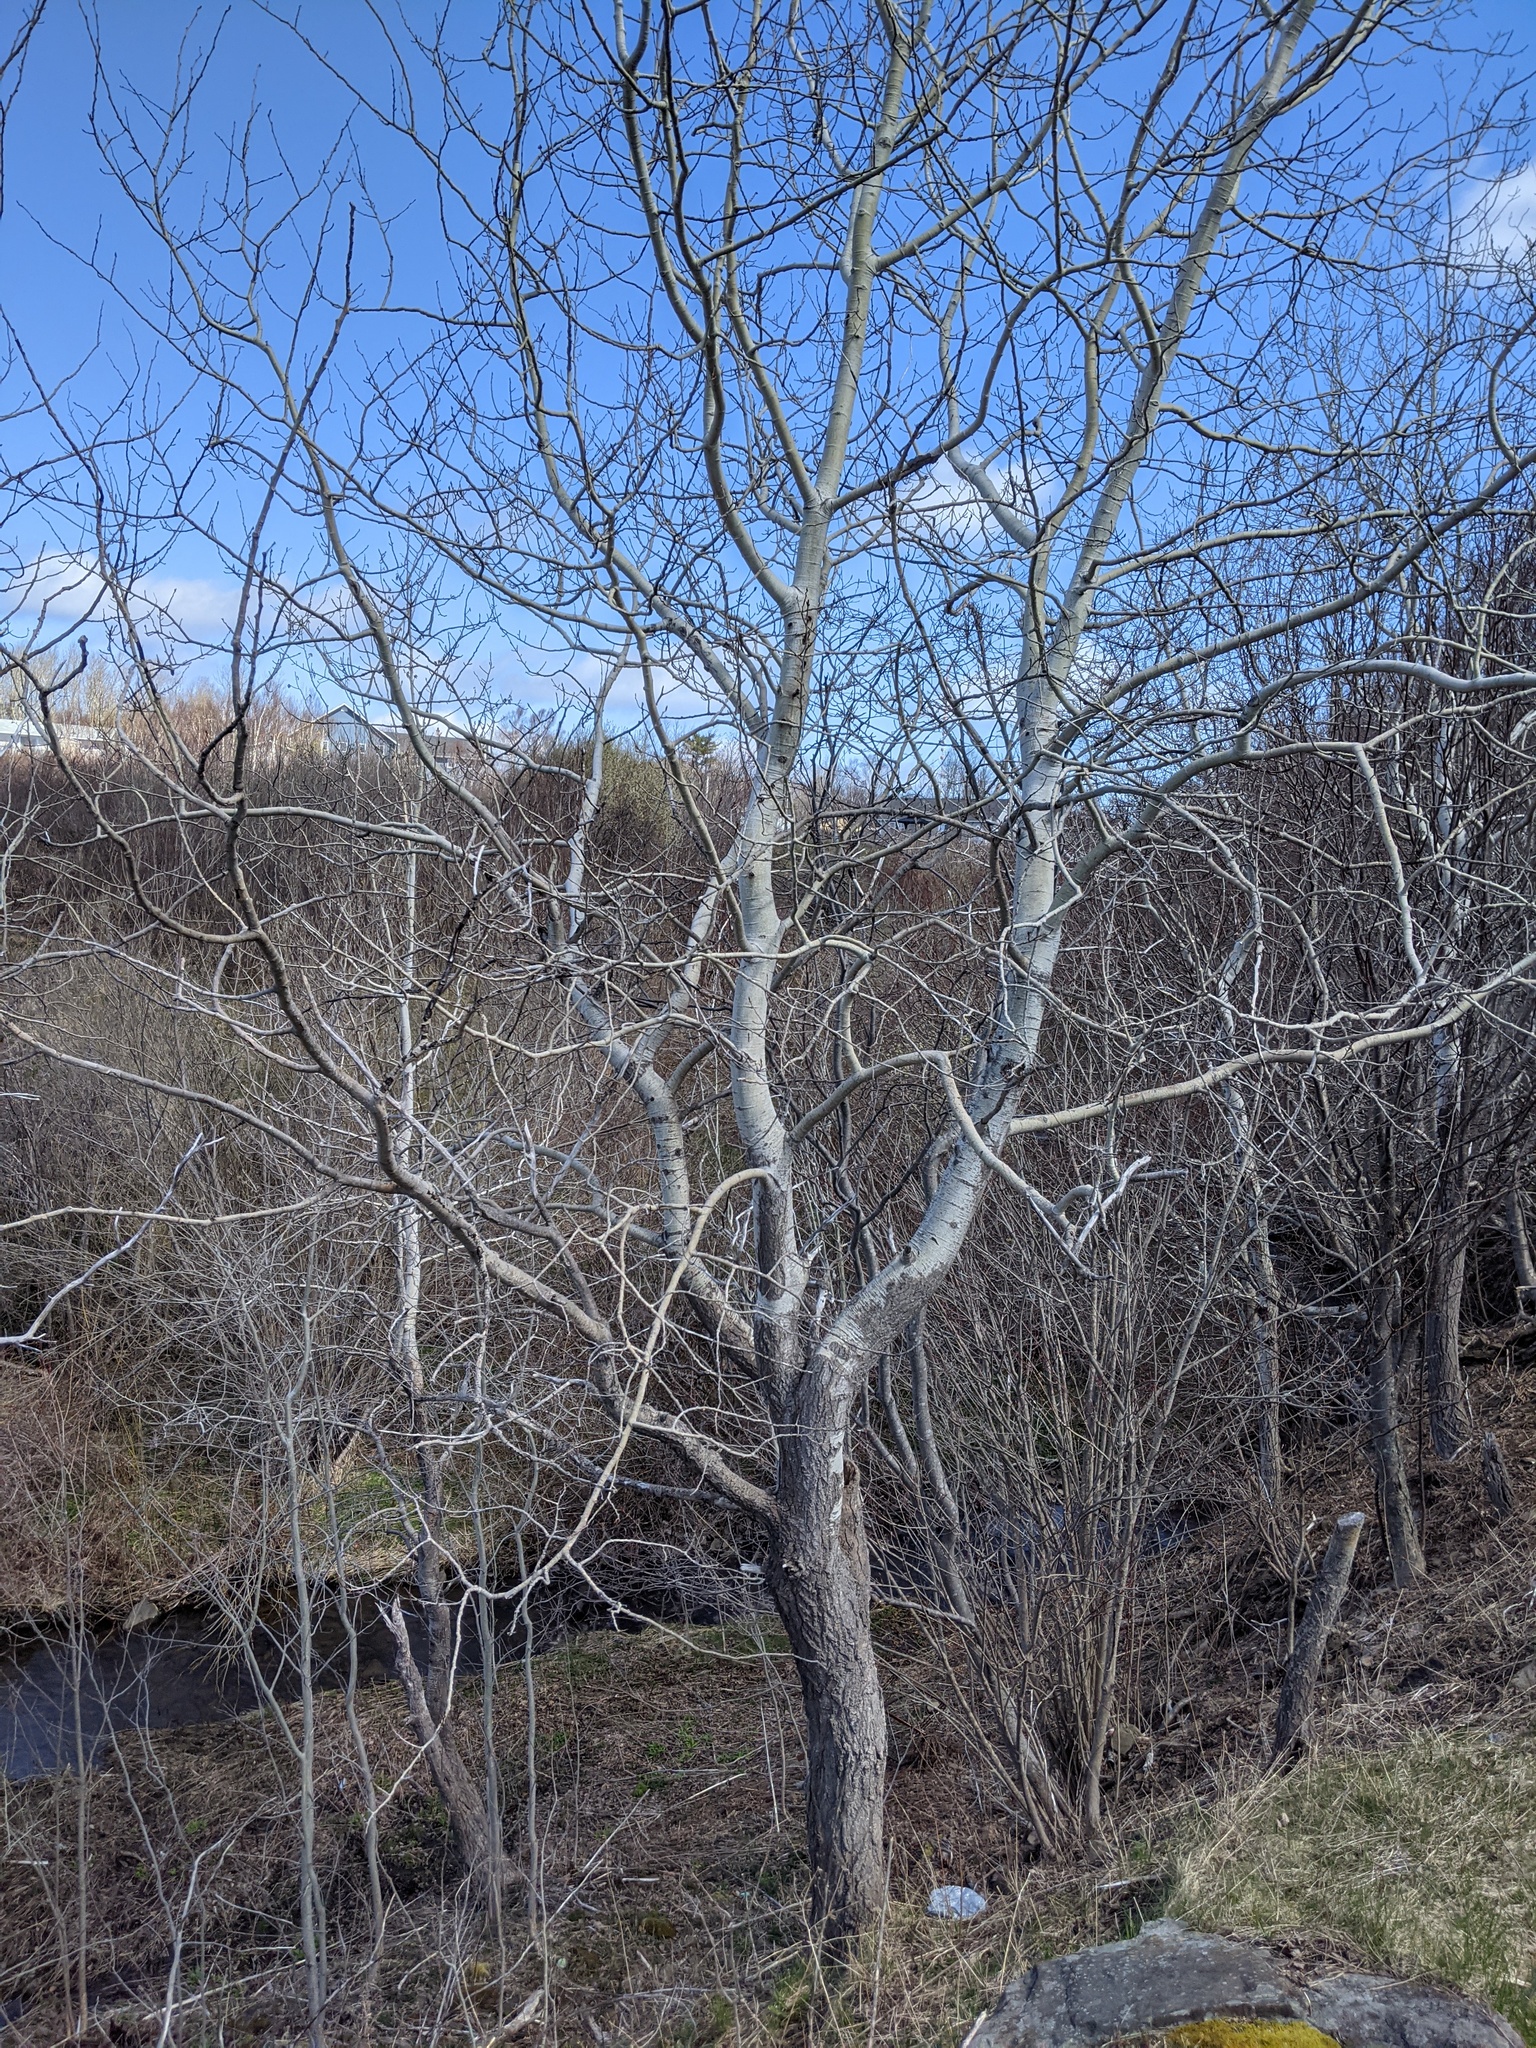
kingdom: Plantae
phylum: Tracheophyta
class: Magnoliopsida
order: Malpighiales
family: Salicaceae
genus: Populus
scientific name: Populus tremuloides
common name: Quaking aspen
